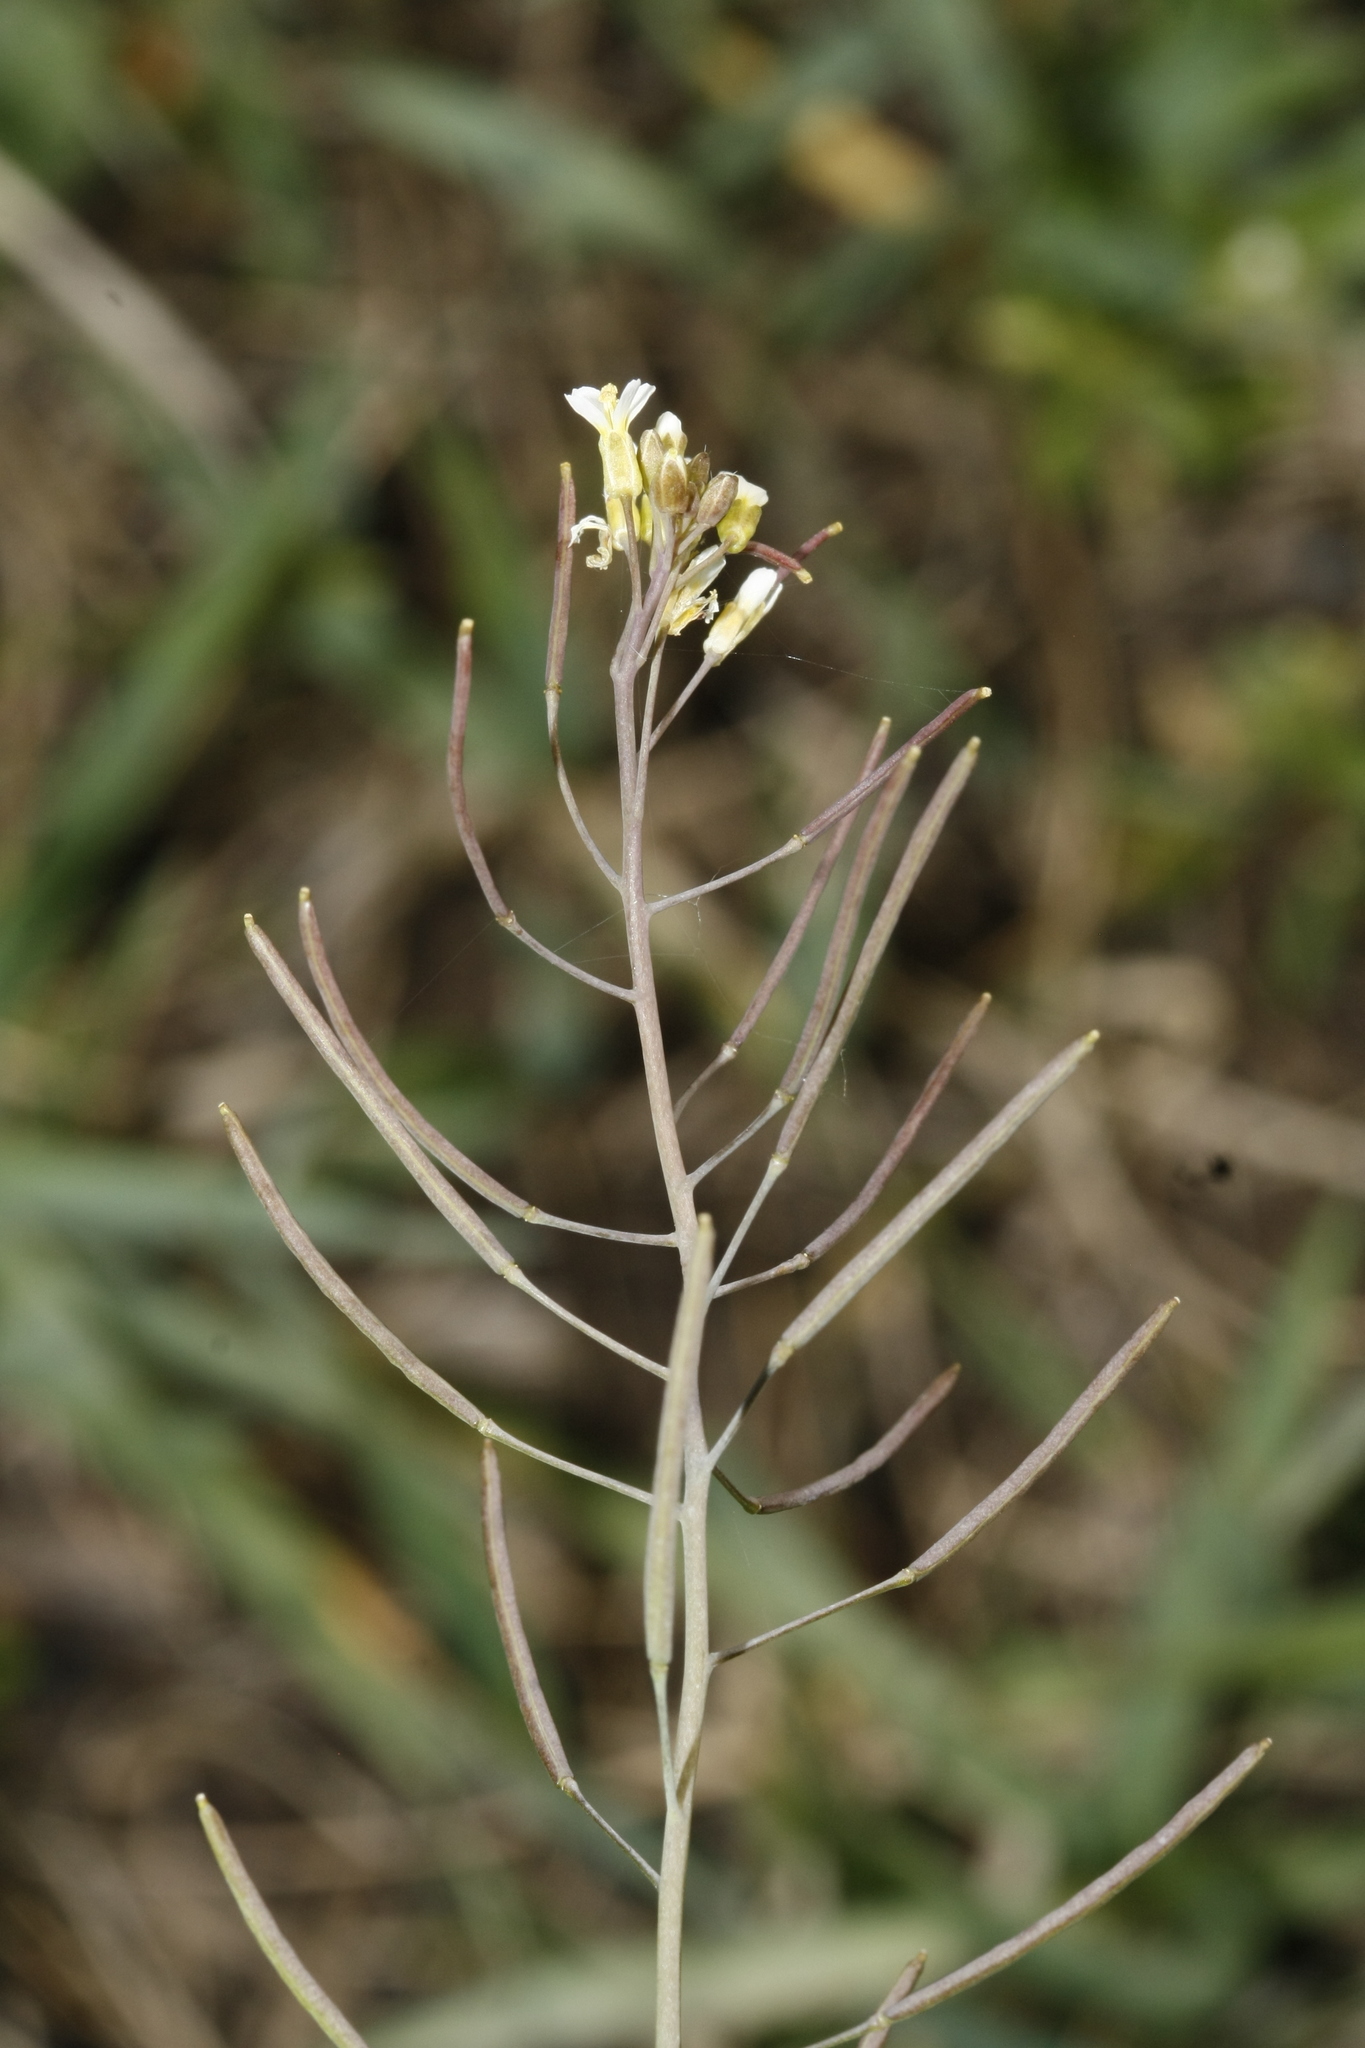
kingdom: Plantae
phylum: Tracheophyta
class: Magnoliopsida
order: Brassicales
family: Brassicaceae
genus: Arabidopsis
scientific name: Arabidopsis thaliana
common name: Thale cress
